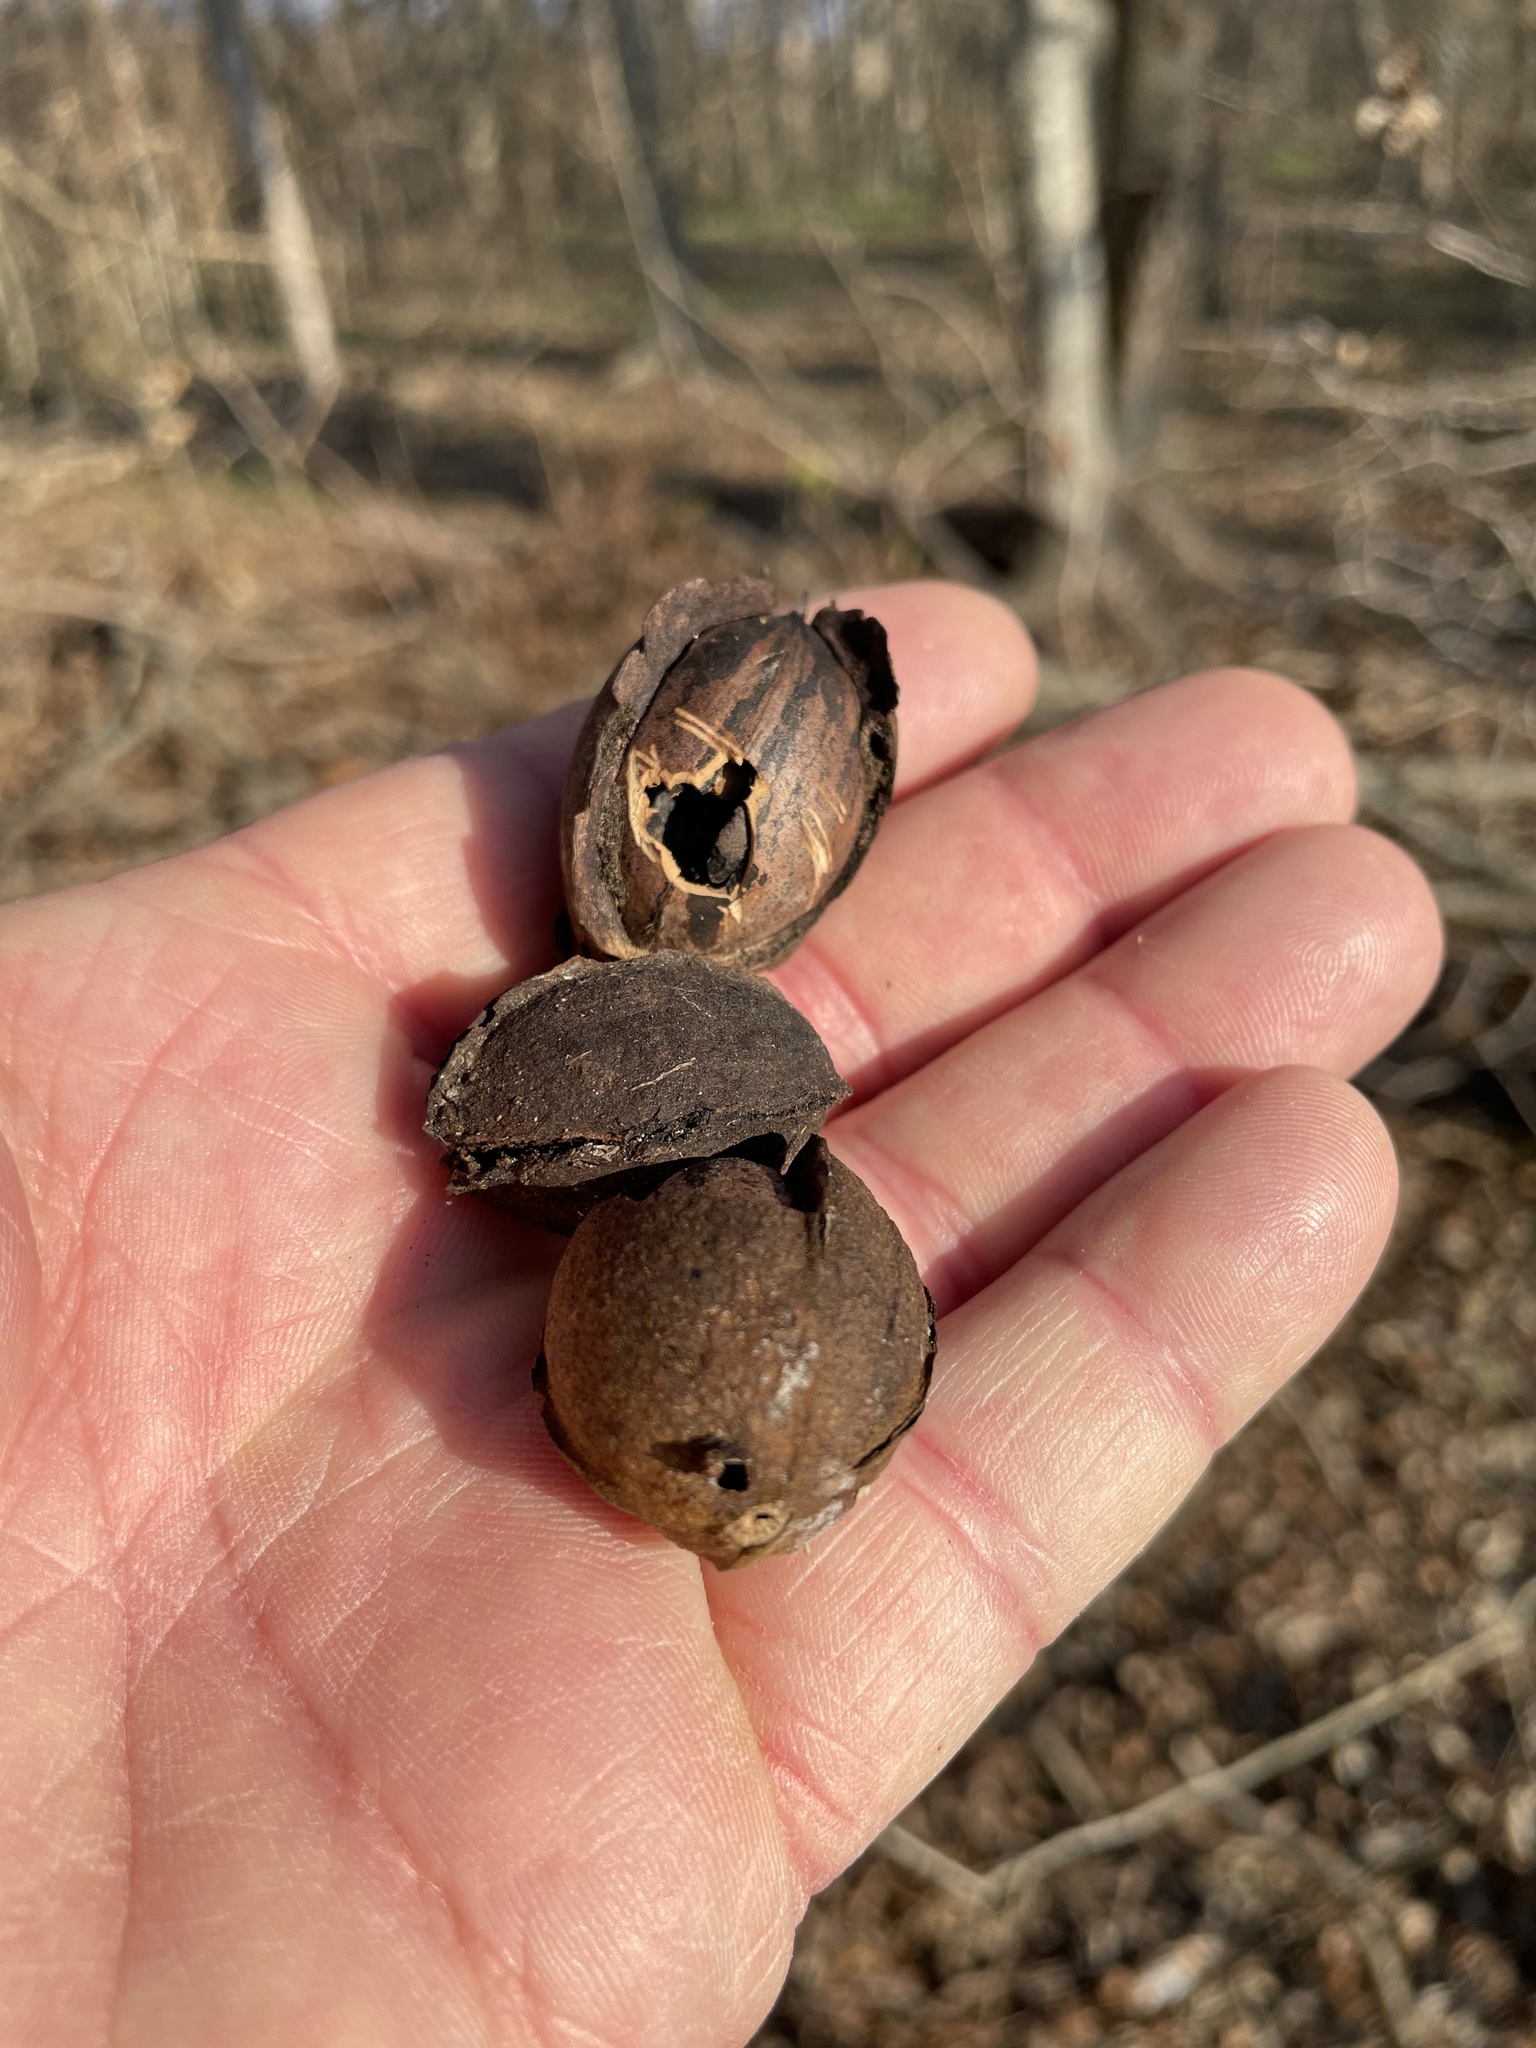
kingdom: Plantae
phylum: Tracheophyta
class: Magnoliopsida
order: Fagales
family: Juglandaceae
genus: Carya
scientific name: Carya illinoinensis
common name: Pecan
